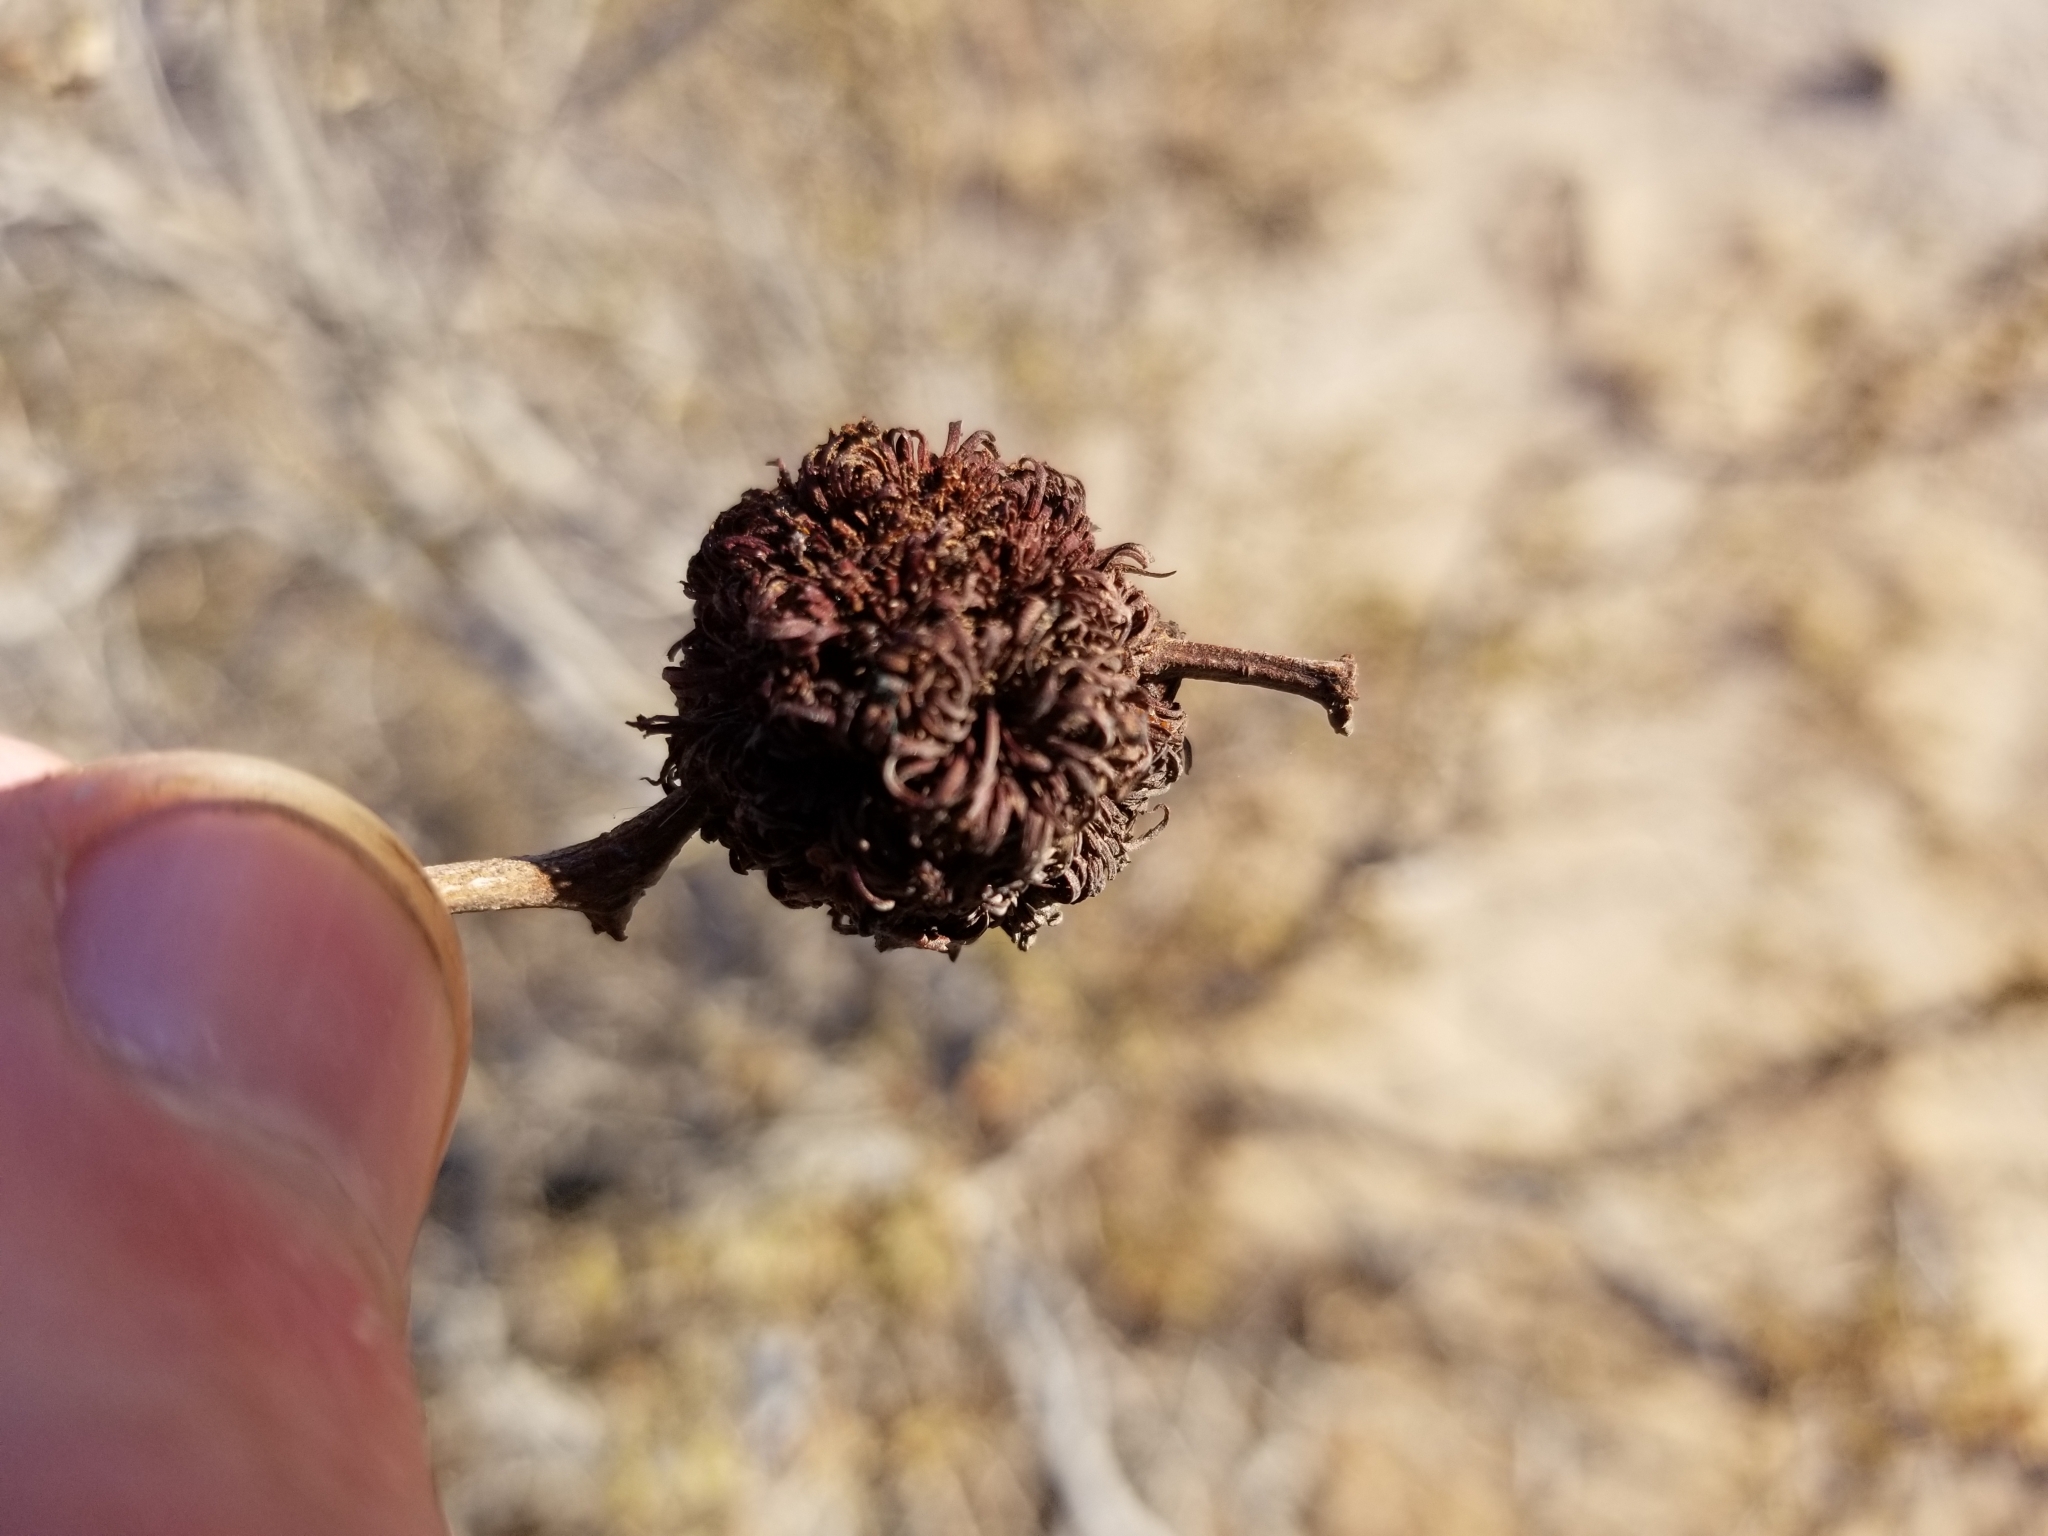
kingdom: Animalia
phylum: Arthropoda
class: Insecta
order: Diptera
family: Cecidomyiidae
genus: Asphondylia
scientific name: Asphondylia auripila
